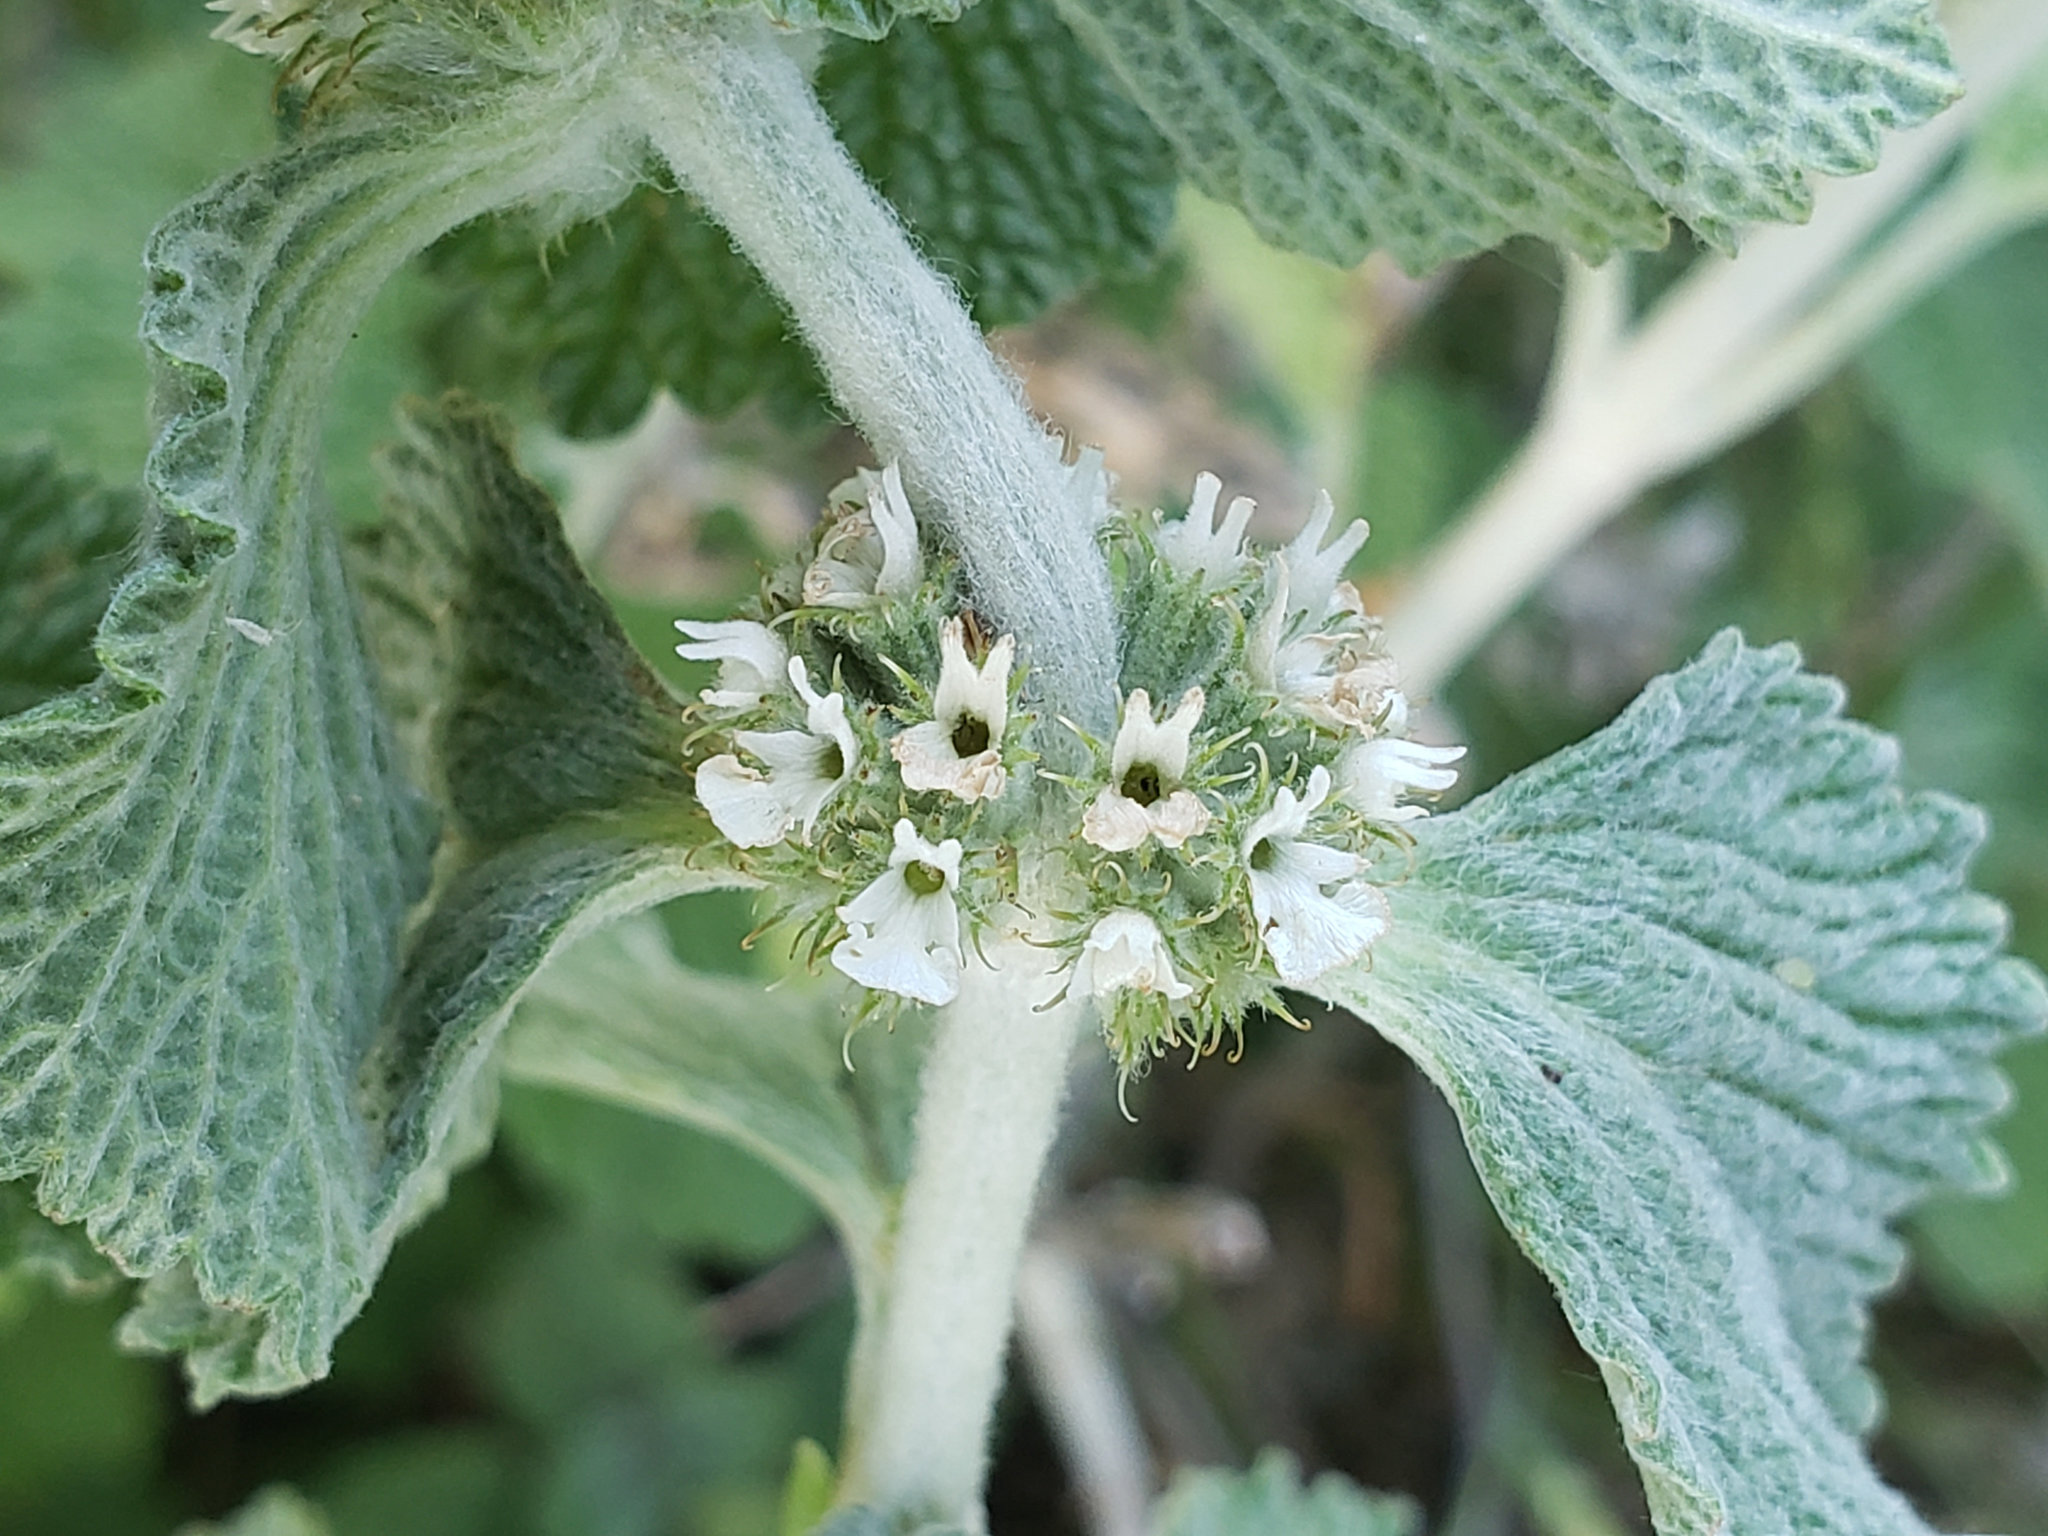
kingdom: Plantae
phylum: Tracheophyta
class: Magnoliopsida
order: Lamiales
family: Lamiaceae
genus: Marrubium
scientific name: Marrubium vulgare
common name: Horehound
